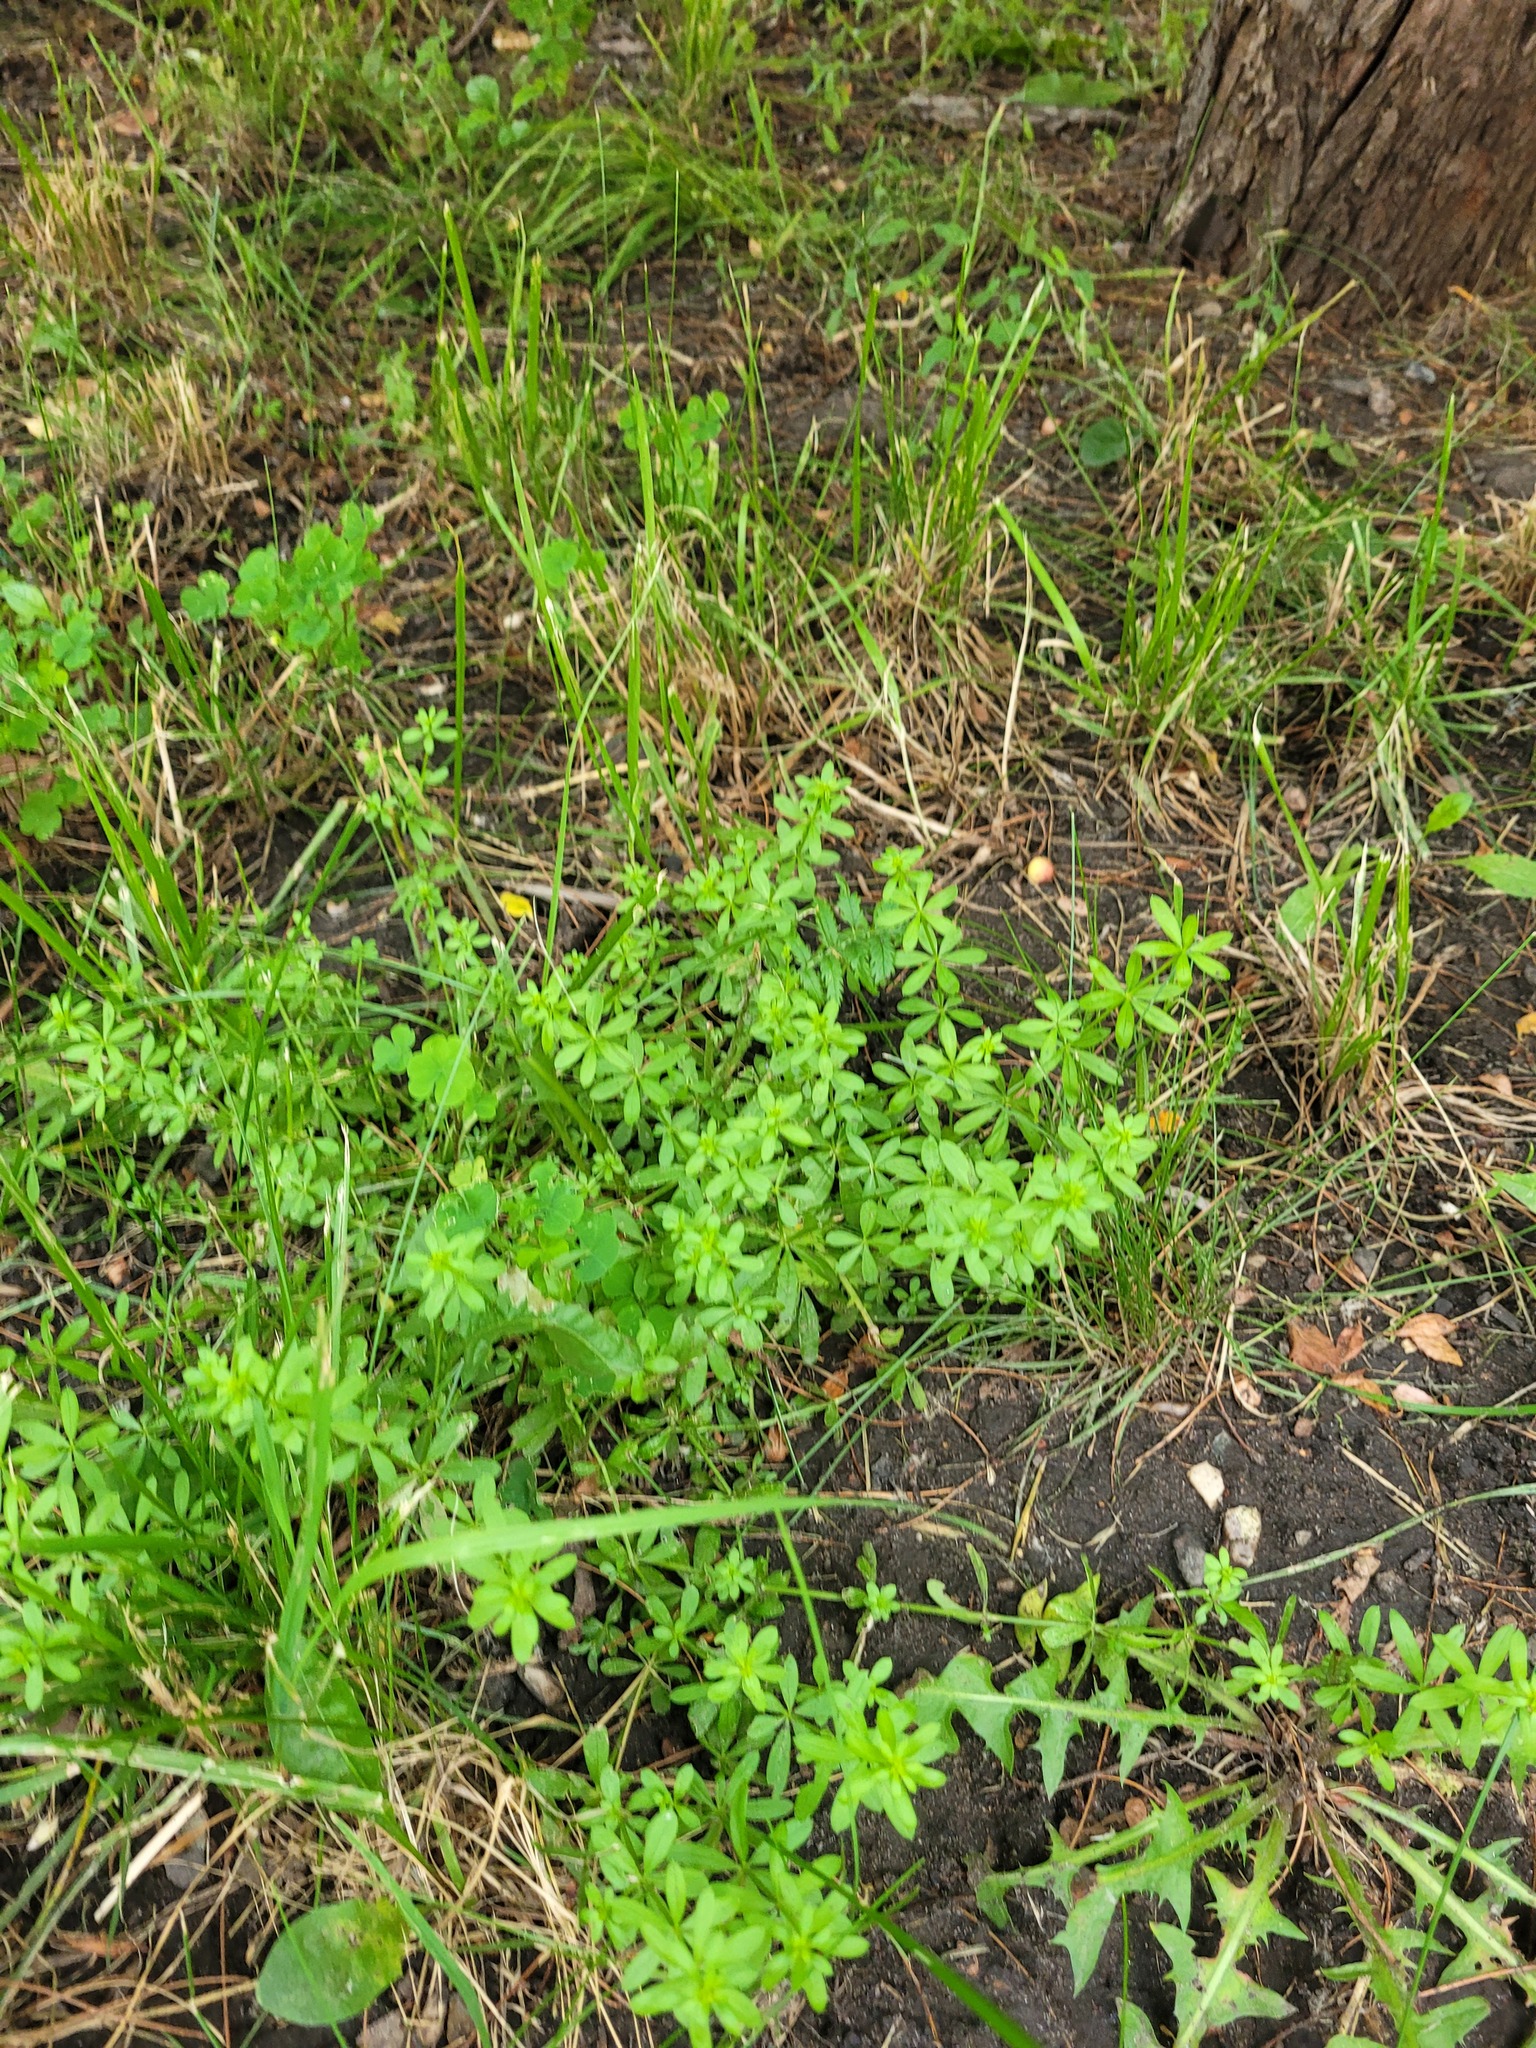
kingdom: Plantae
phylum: Tracheophyta
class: Magnoliopsida
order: Gentianales
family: Rubiaceae
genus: Galium
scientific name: Galium mollugo
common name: Hedge bedstraw
